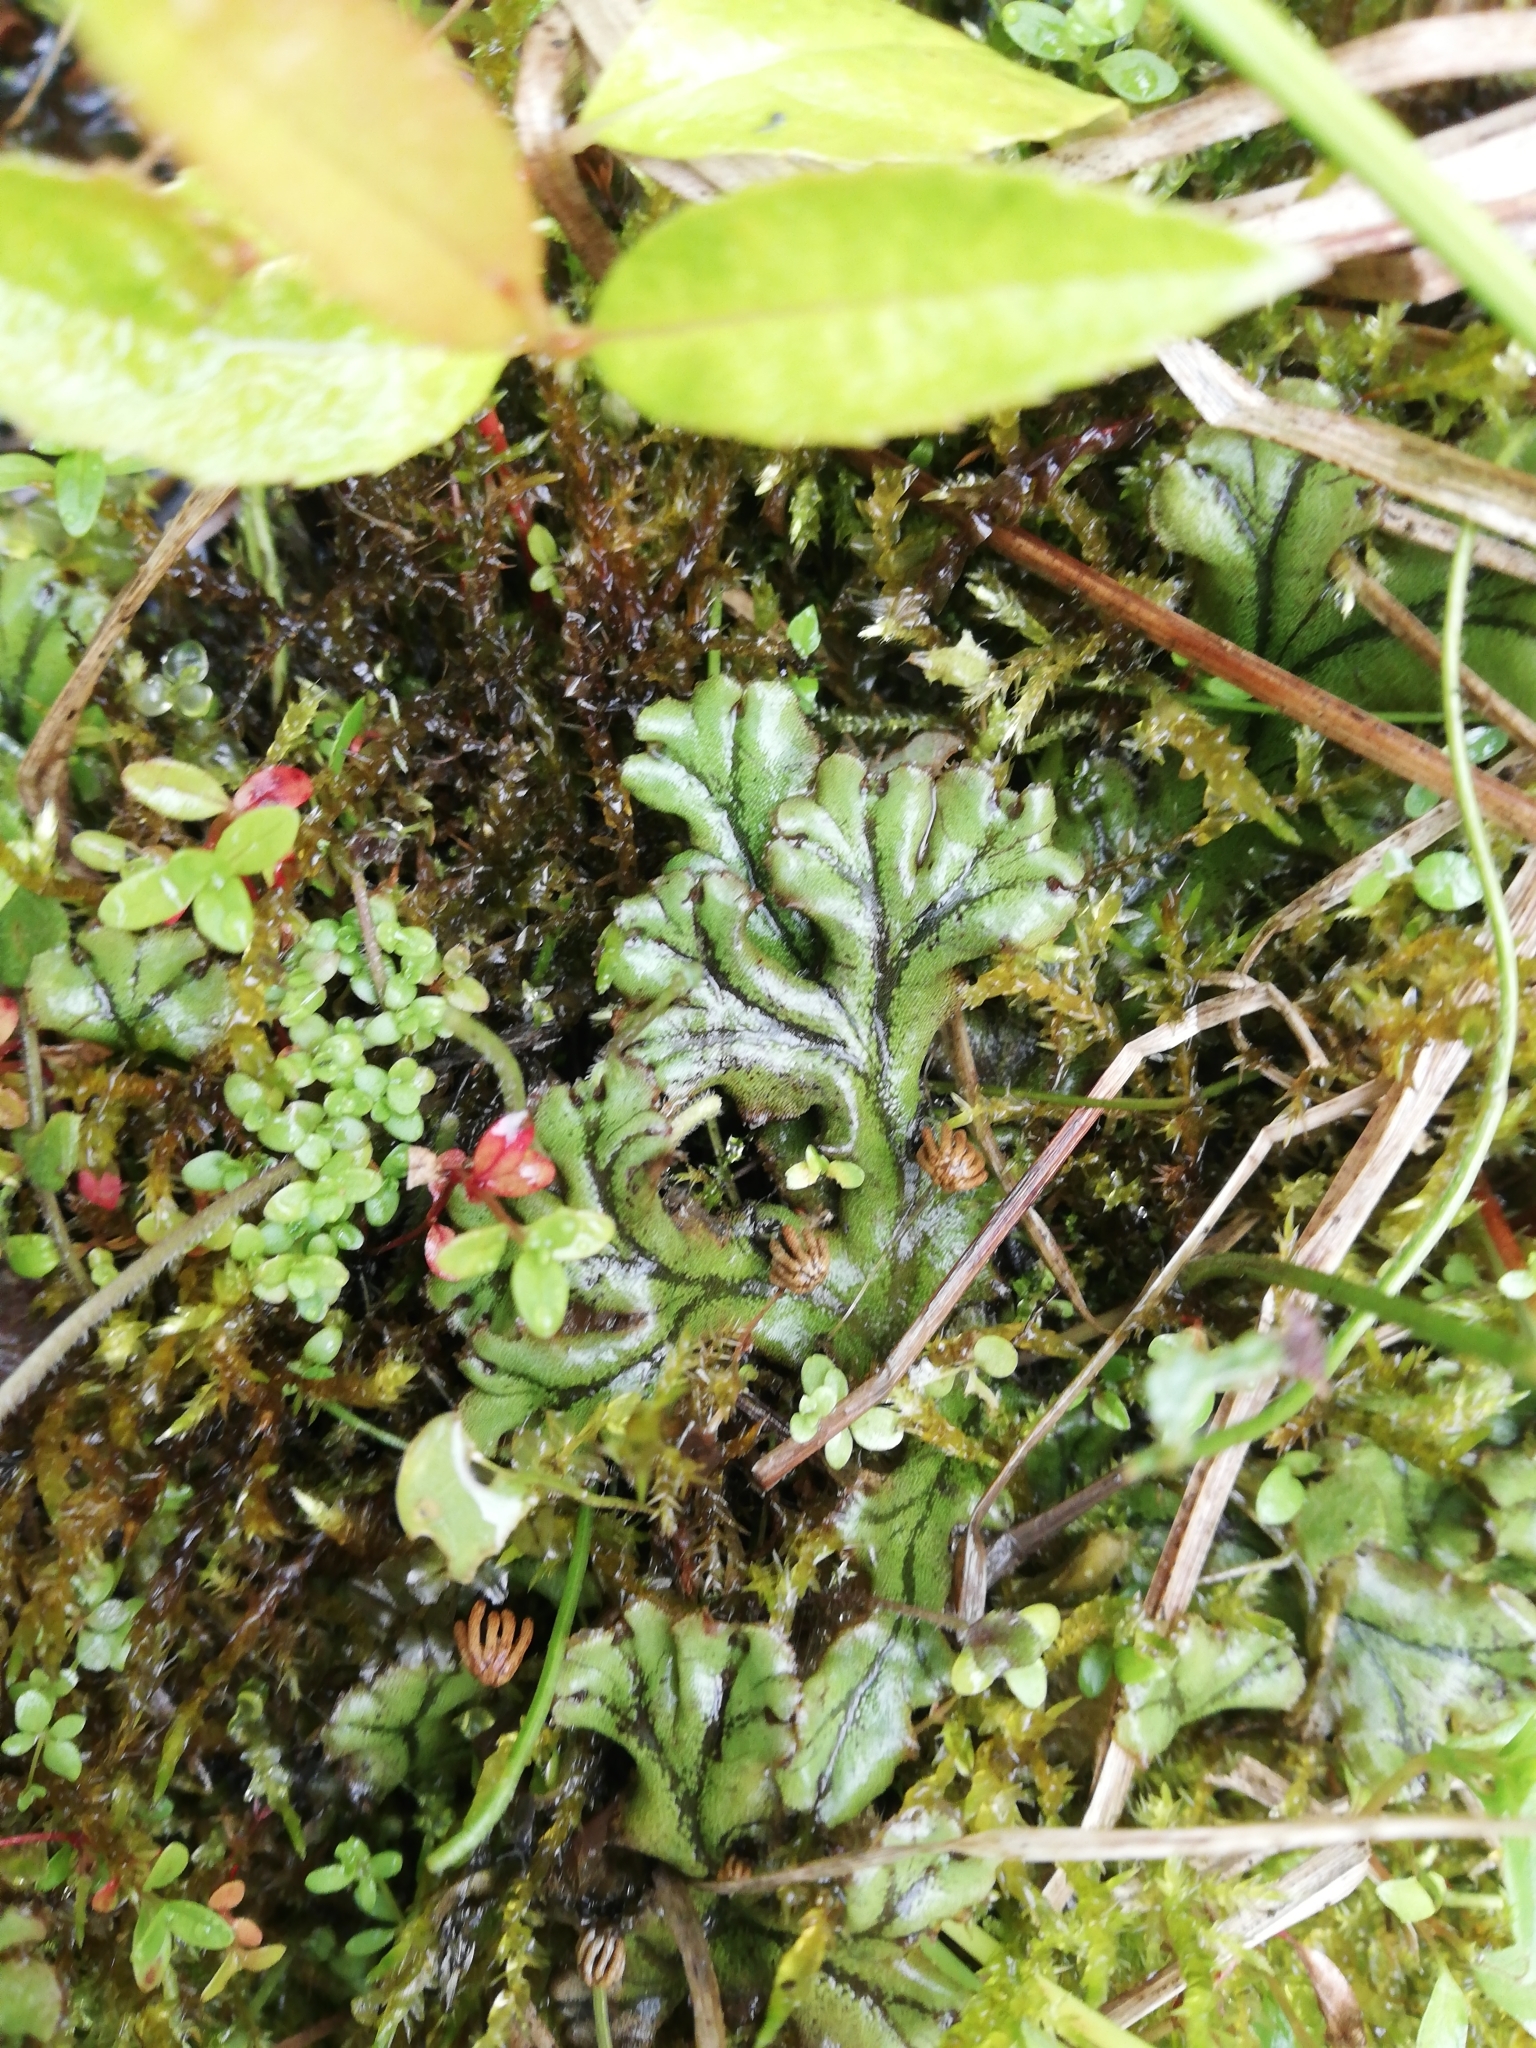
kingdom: Plantae
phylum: Marchantiophyta
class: Marchantiopsida
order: Marchantiales
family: Marchantiaceae
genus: Marchantia
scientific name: Marchantia polymorpha
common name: Common liverwort
